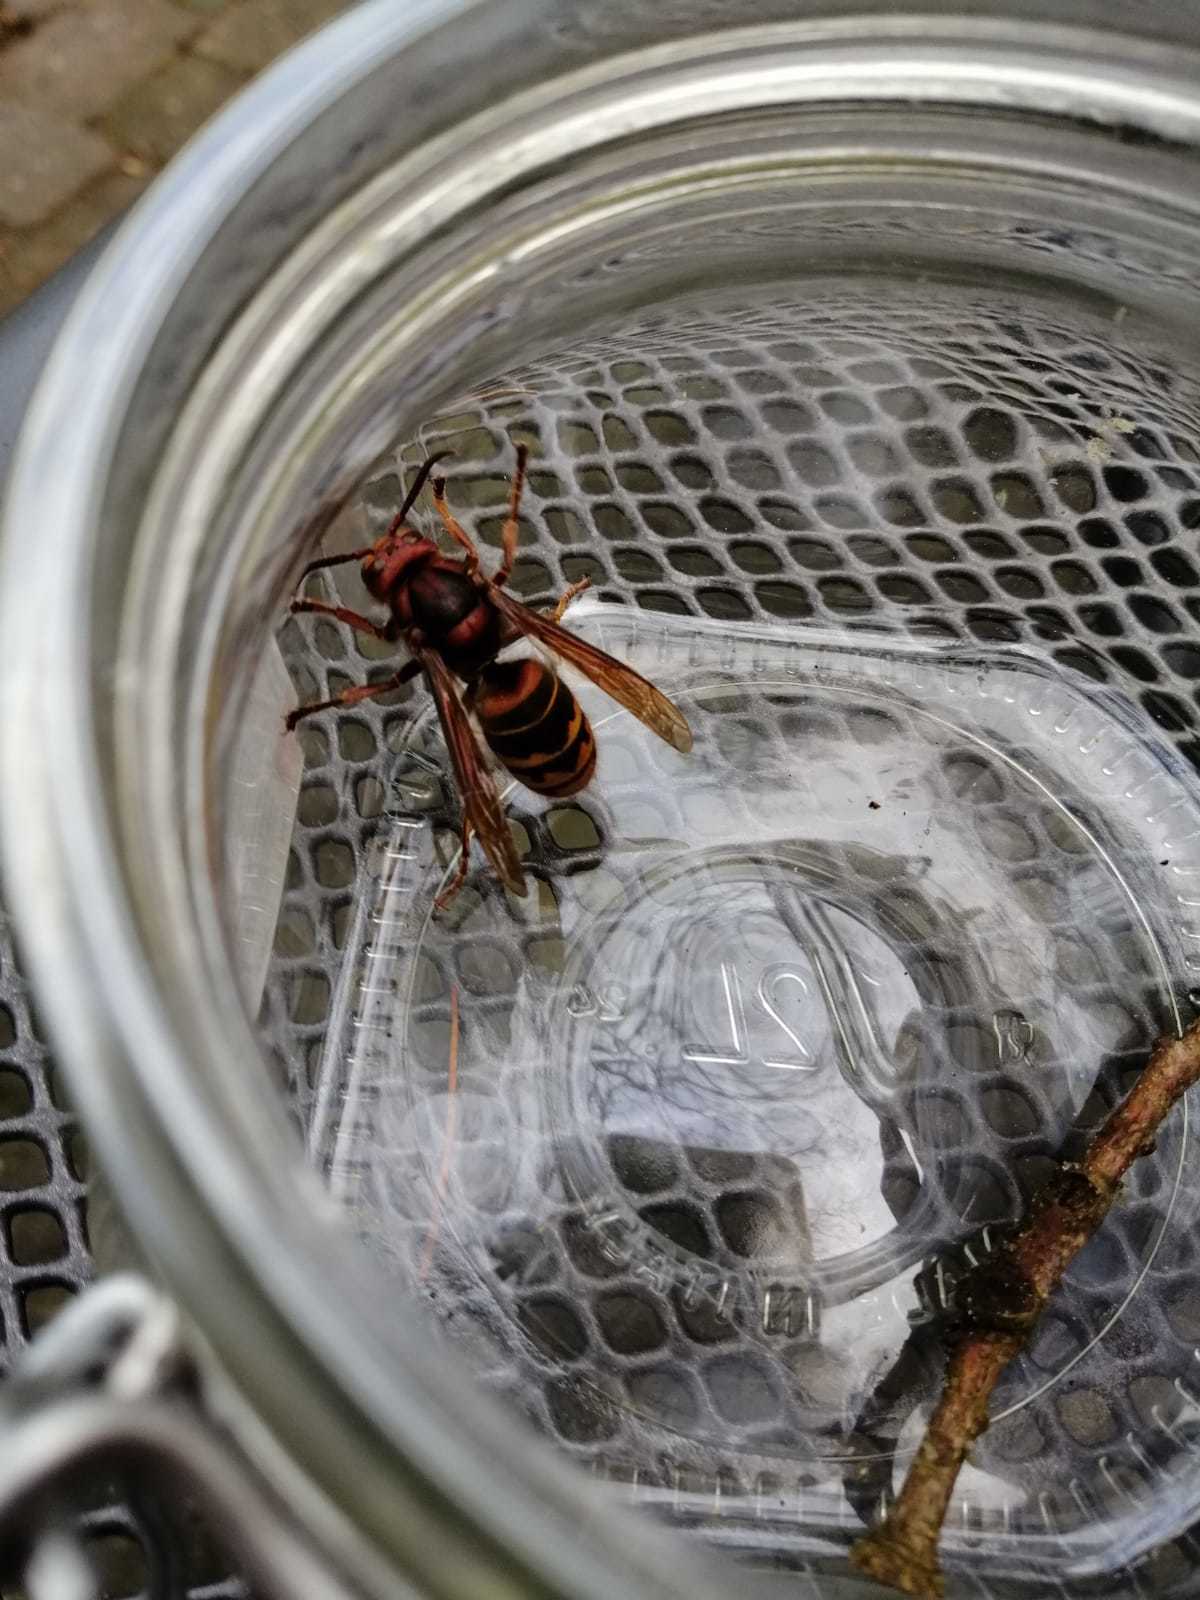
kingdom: Animalia
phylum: Arthropoda
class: Insecta
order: Hymenoptera
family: Vespidae
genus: Vespa
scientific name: Vespa crabro
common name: Hornet
